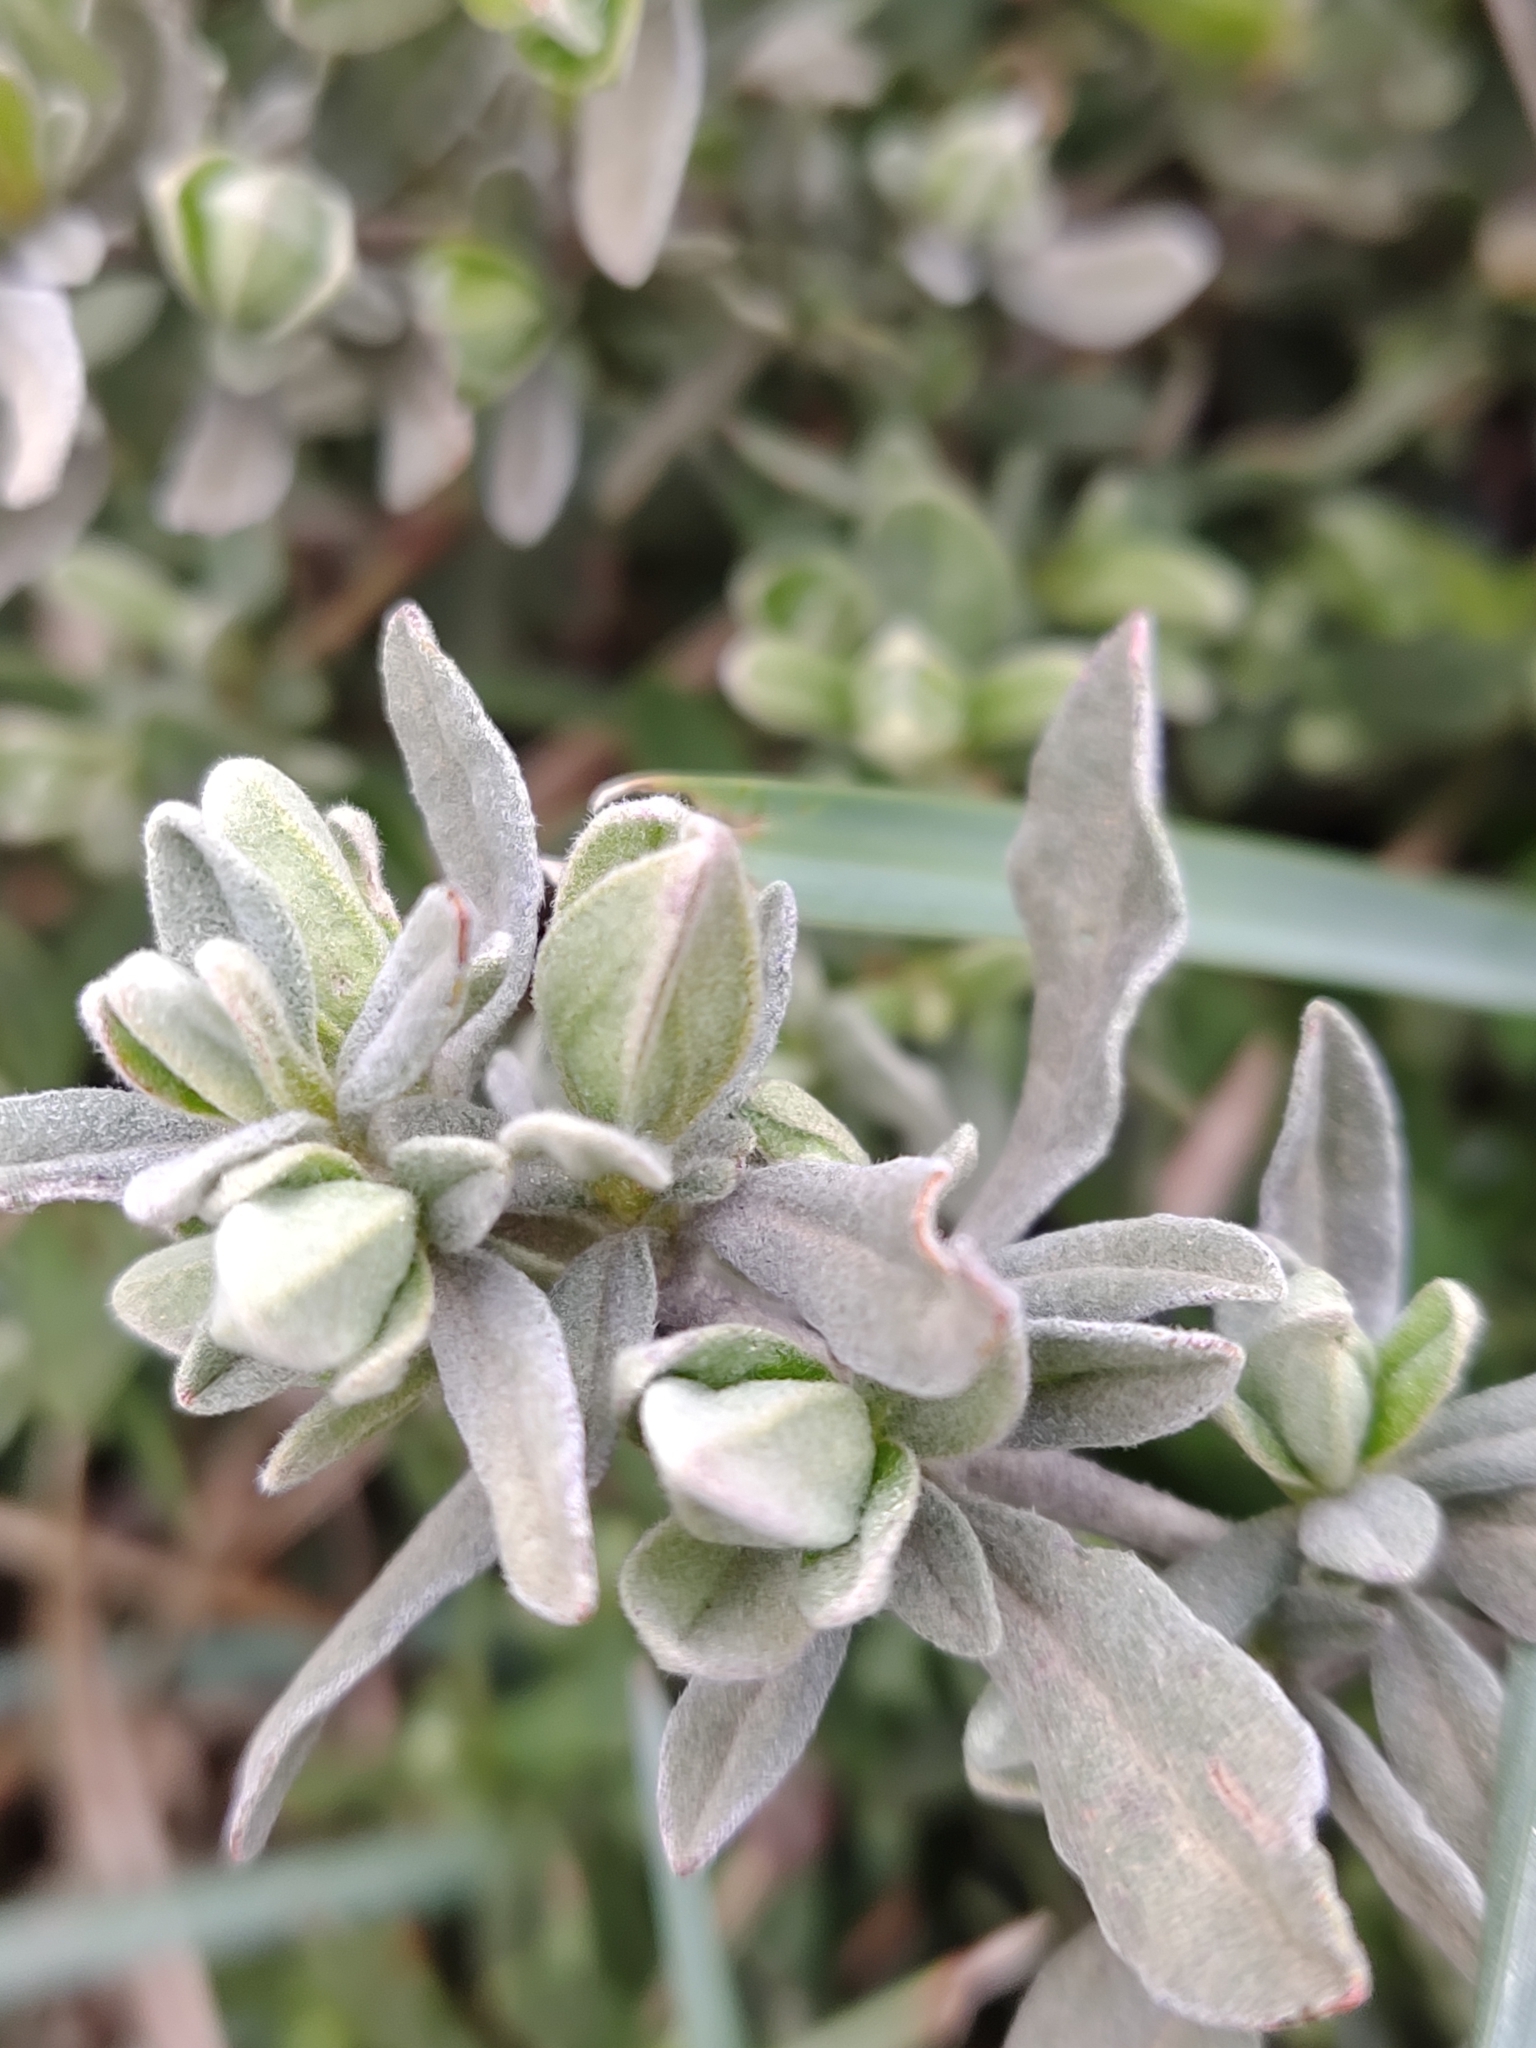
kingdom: Plantae
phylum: Tracheophyta
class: Magnoliopsida
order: Malvales
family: Cistaceae
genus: Halimium
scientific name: Halimium lasianthum
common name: Lisbon false sun-rose
